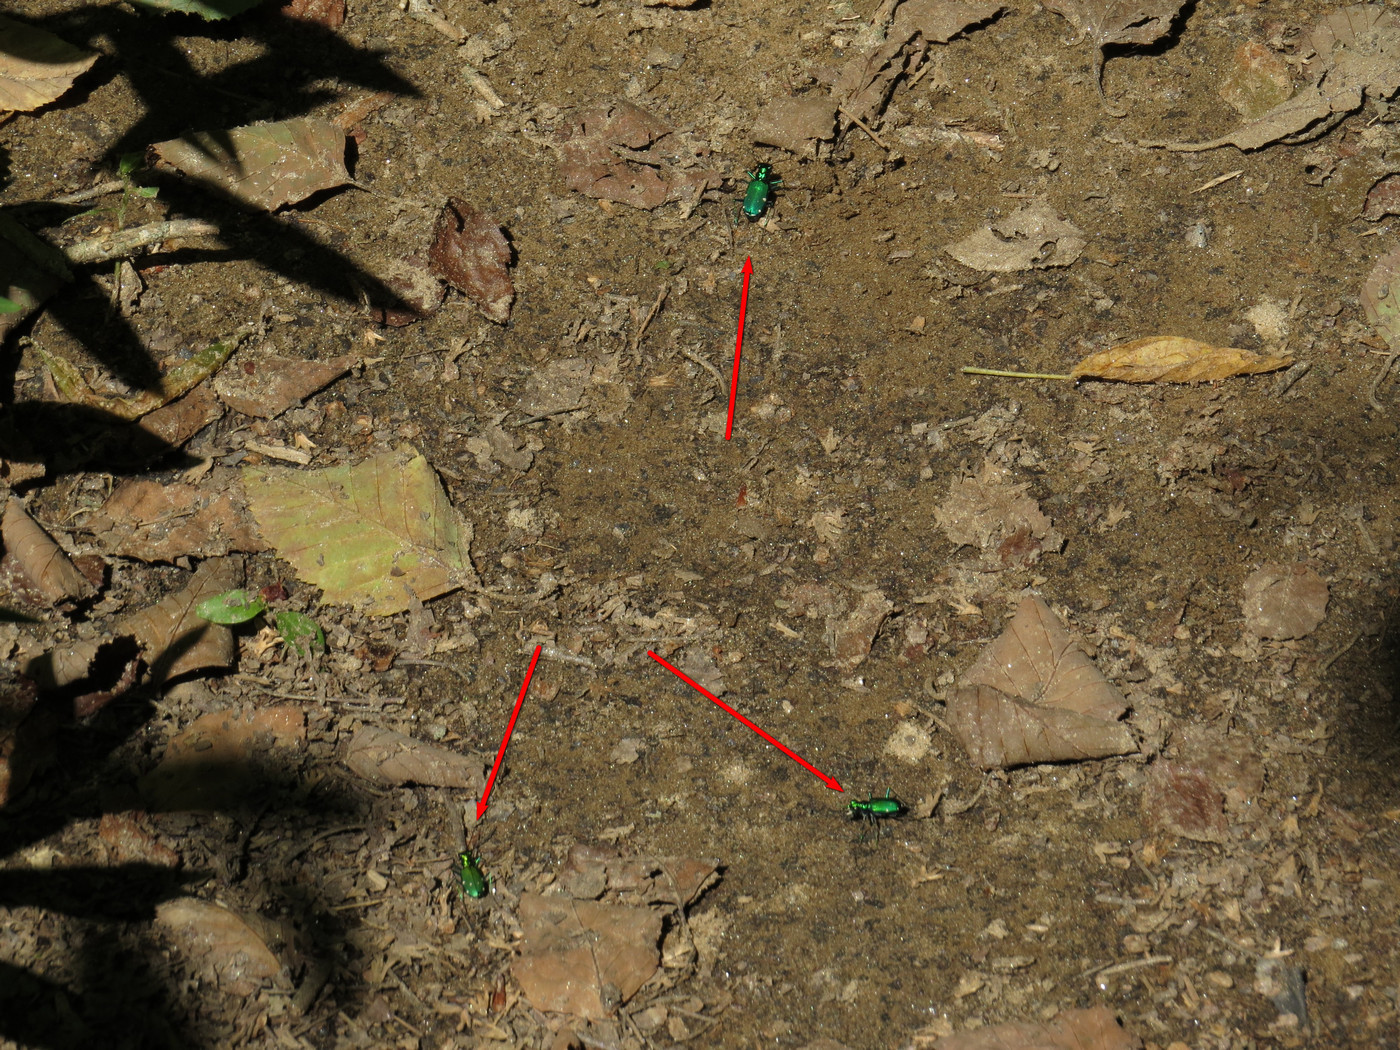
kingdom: Animalia
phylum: Arthropoda
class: Insecta
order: Coleoptera
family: Carabidae
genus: Cicindela
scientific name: Cicindela sexguttata
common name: Six-spotted tiger beetle
